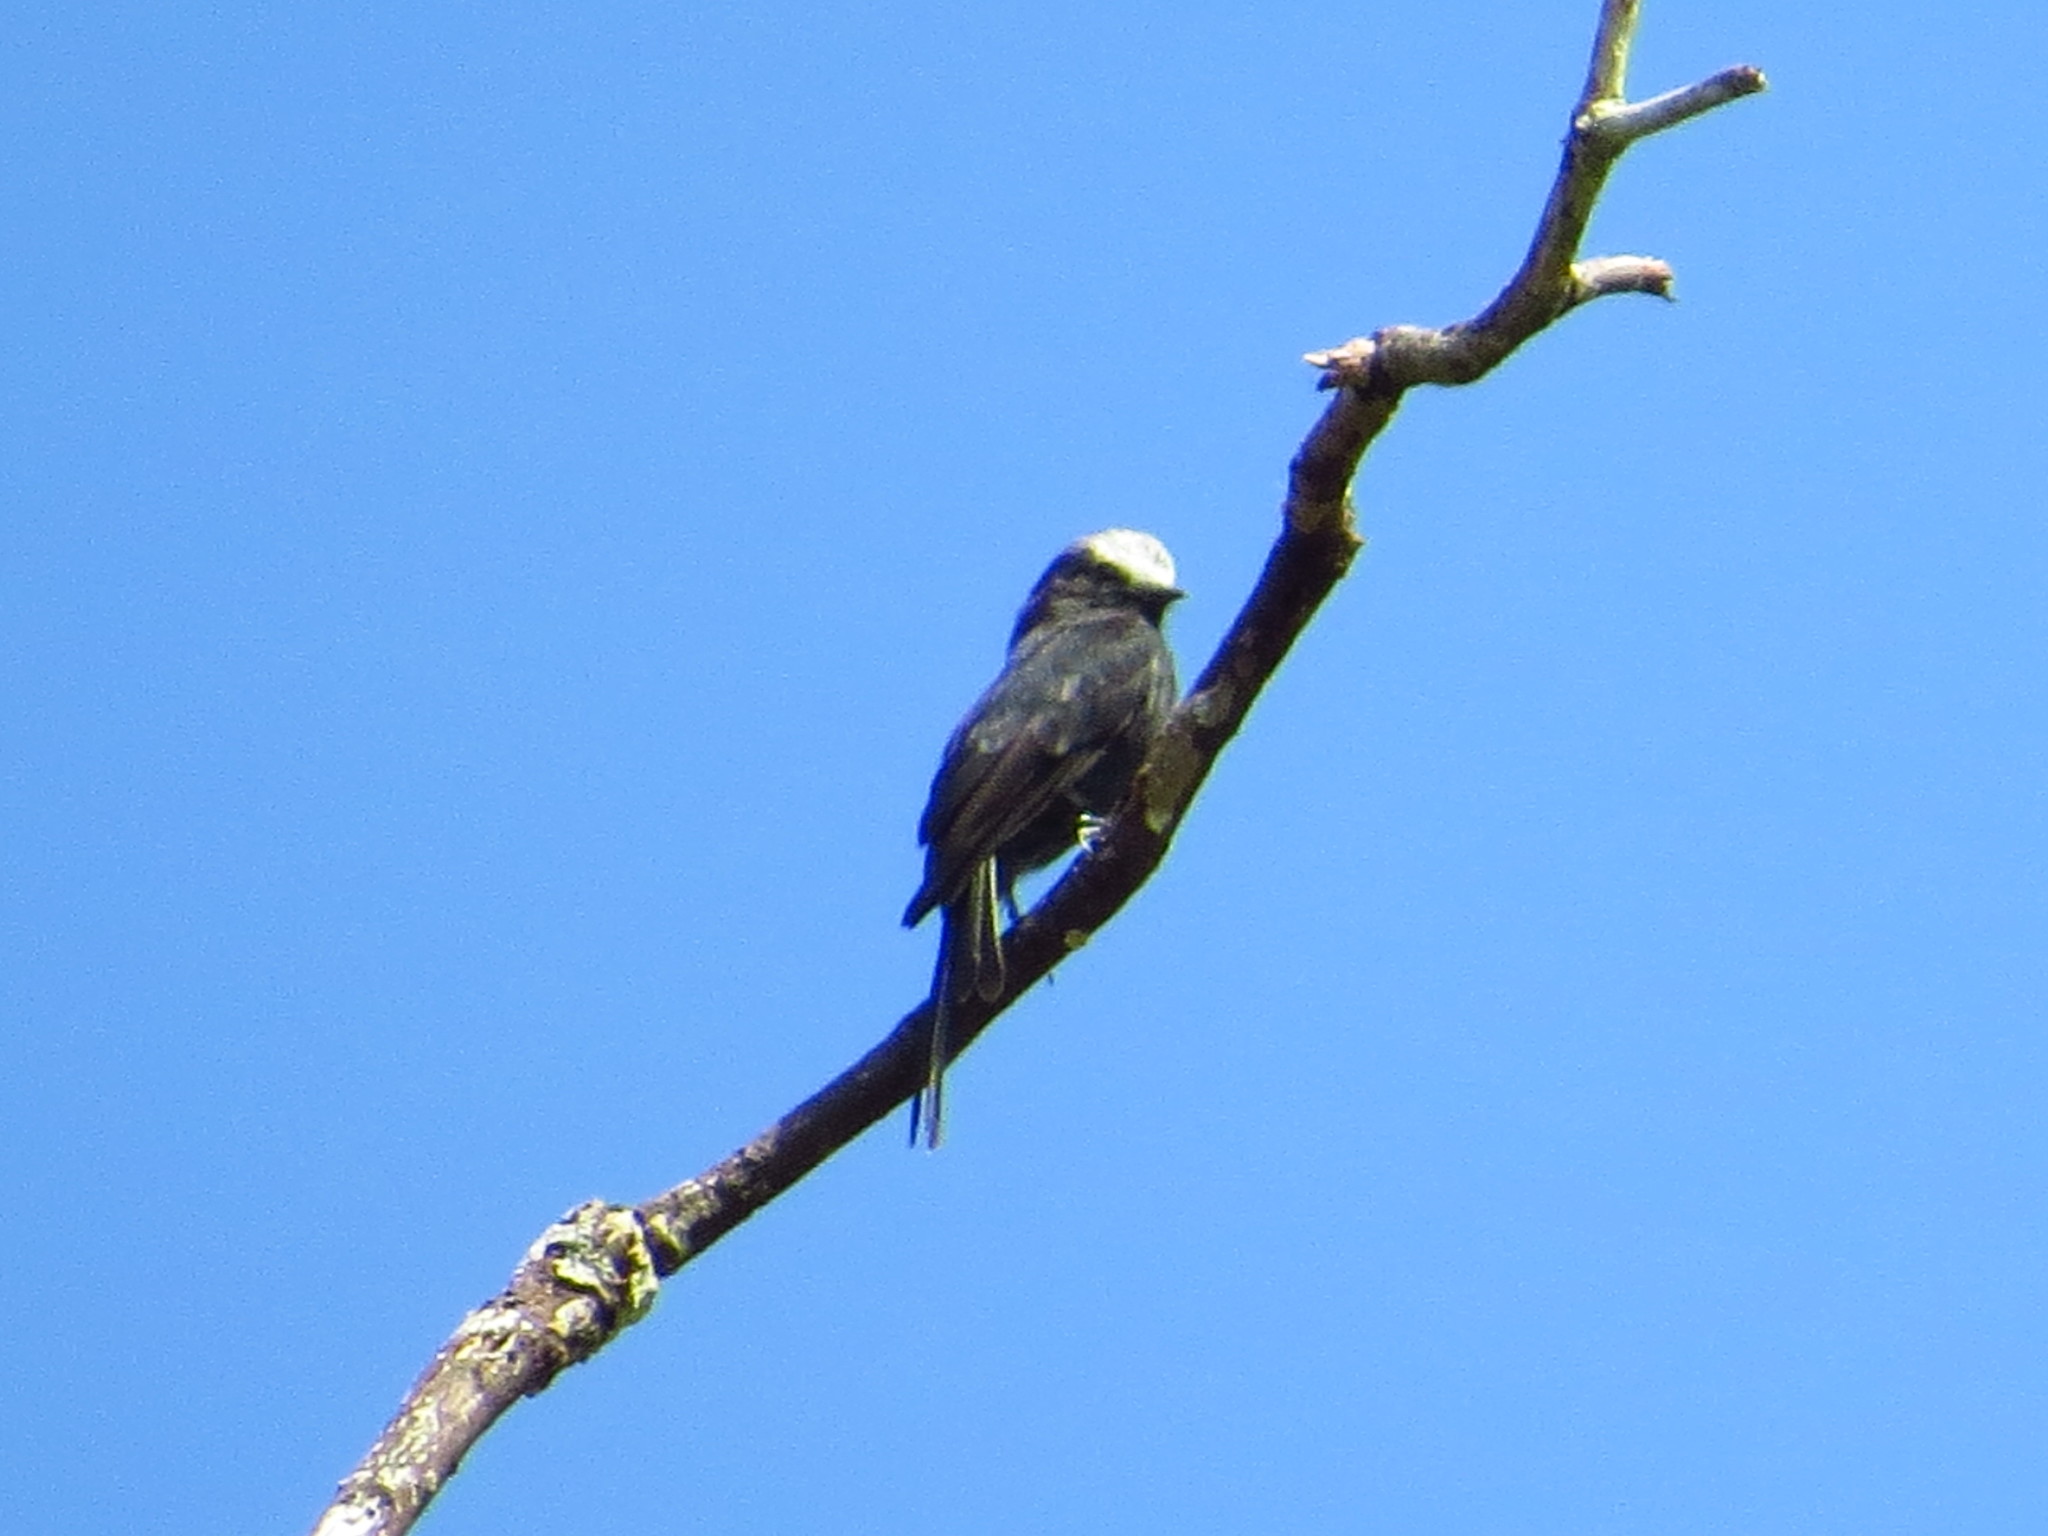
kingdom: Animalia
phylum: Chordata
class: Aves
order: Passeriformes
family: Tyrannidae
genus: Colonia
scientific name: Colonia colonus
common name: Long-tailed tyrant
